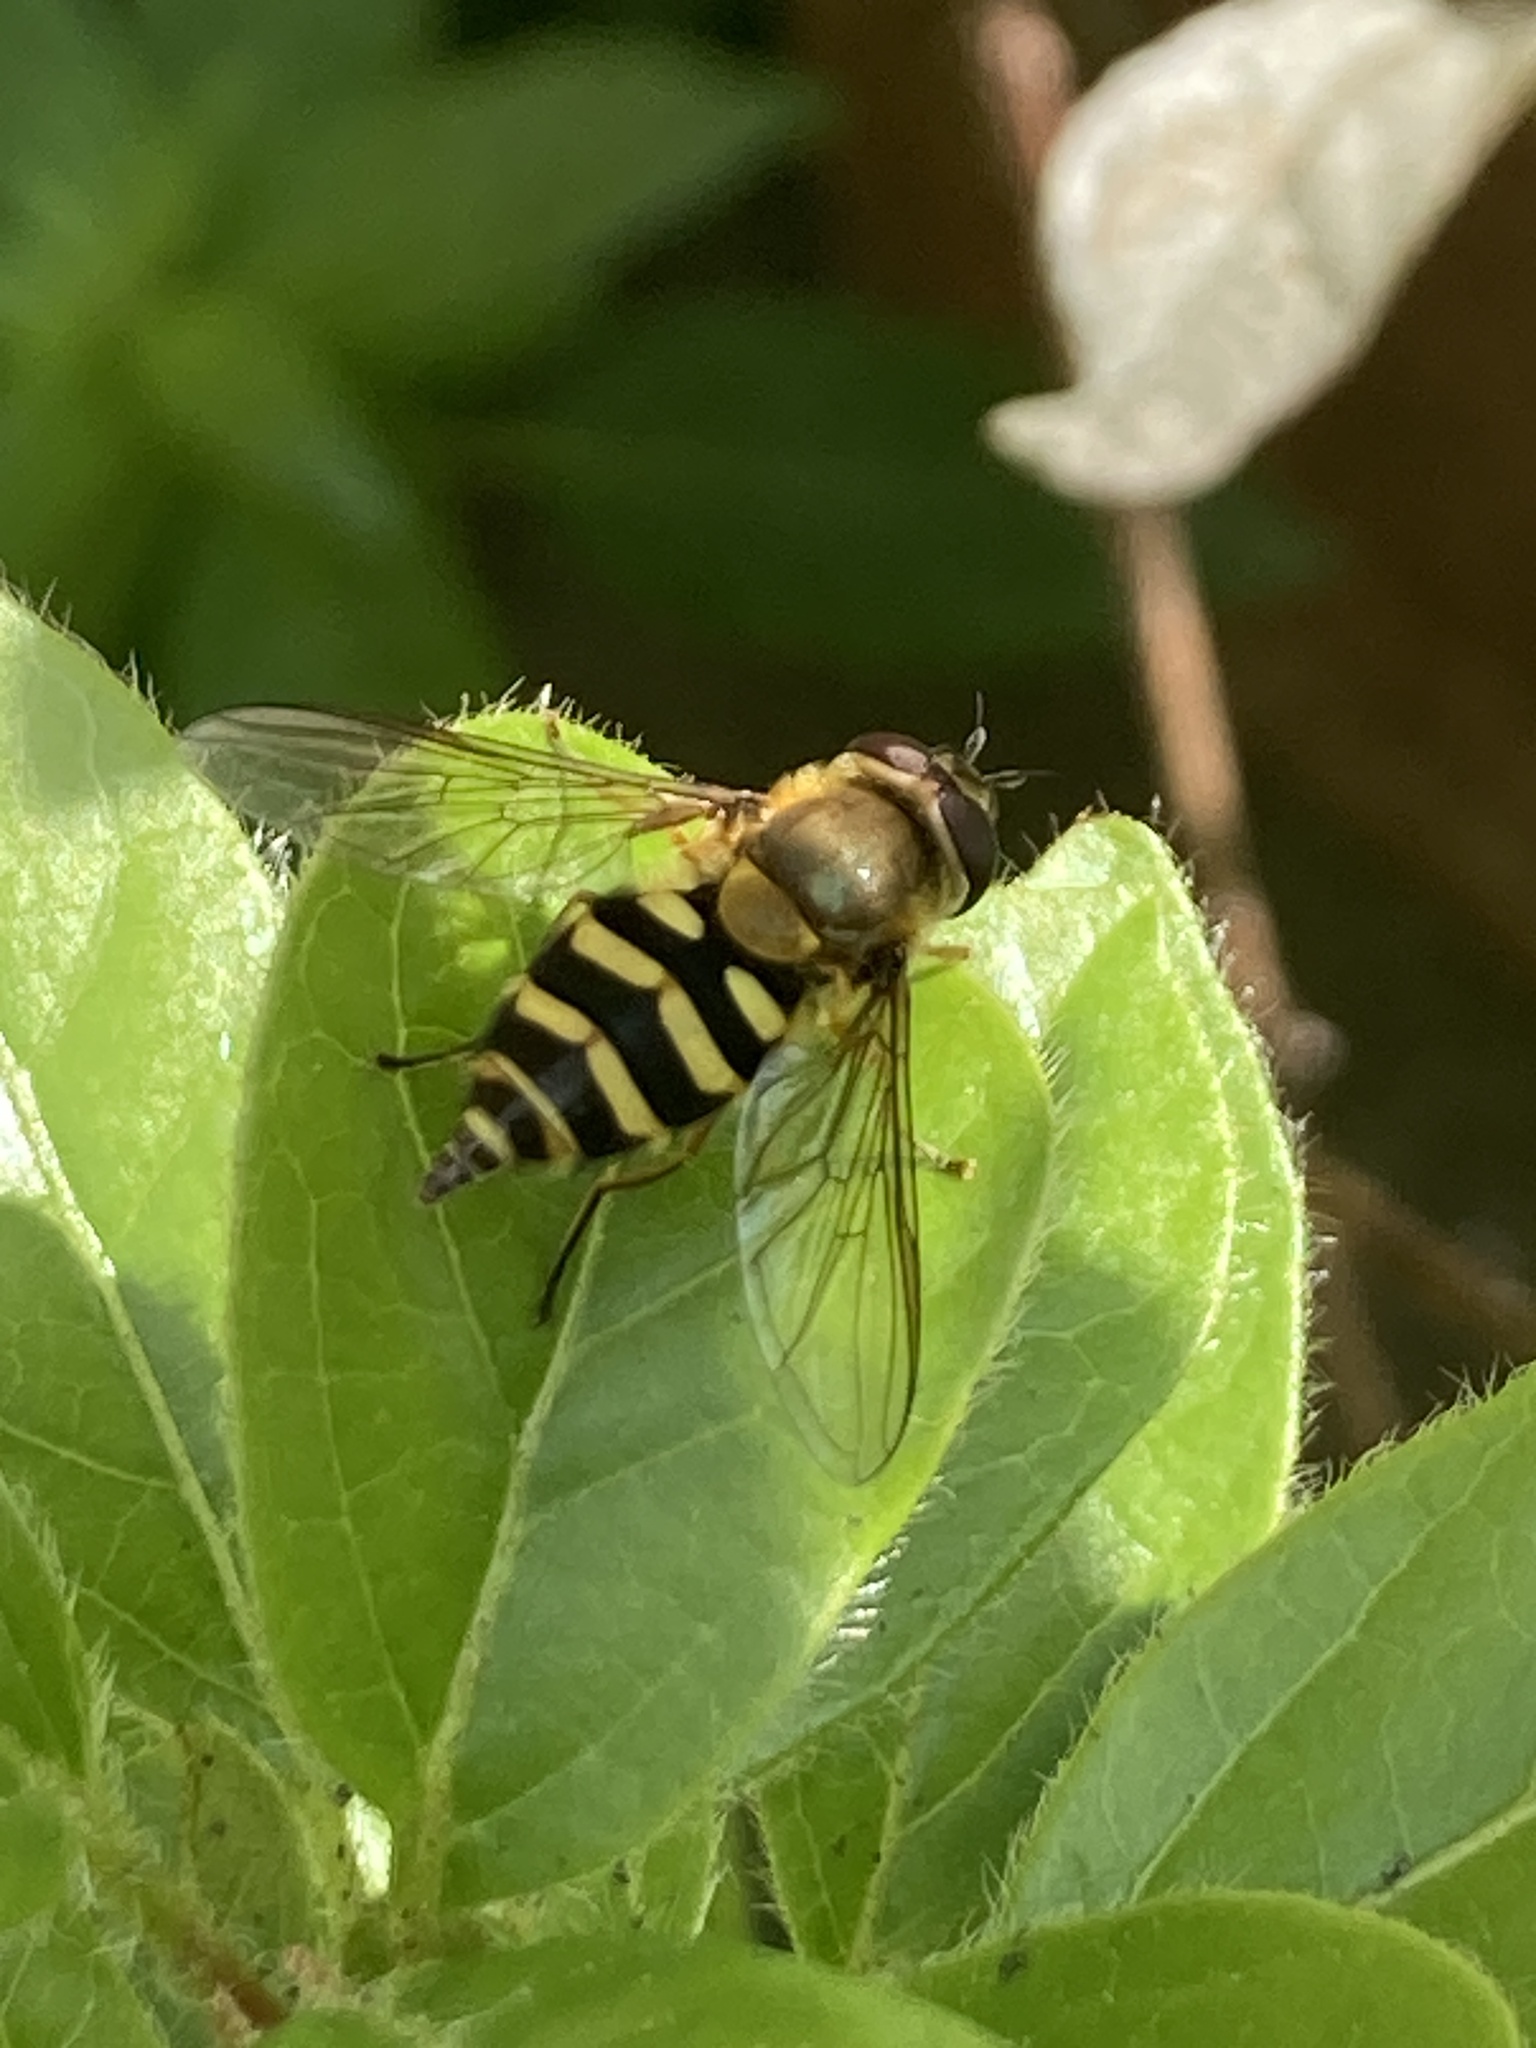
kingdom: Animalia
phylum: Arthropoda
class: Insecta
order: Diptera
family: Syrphidae
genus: Syrphus
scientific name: Syrphus
